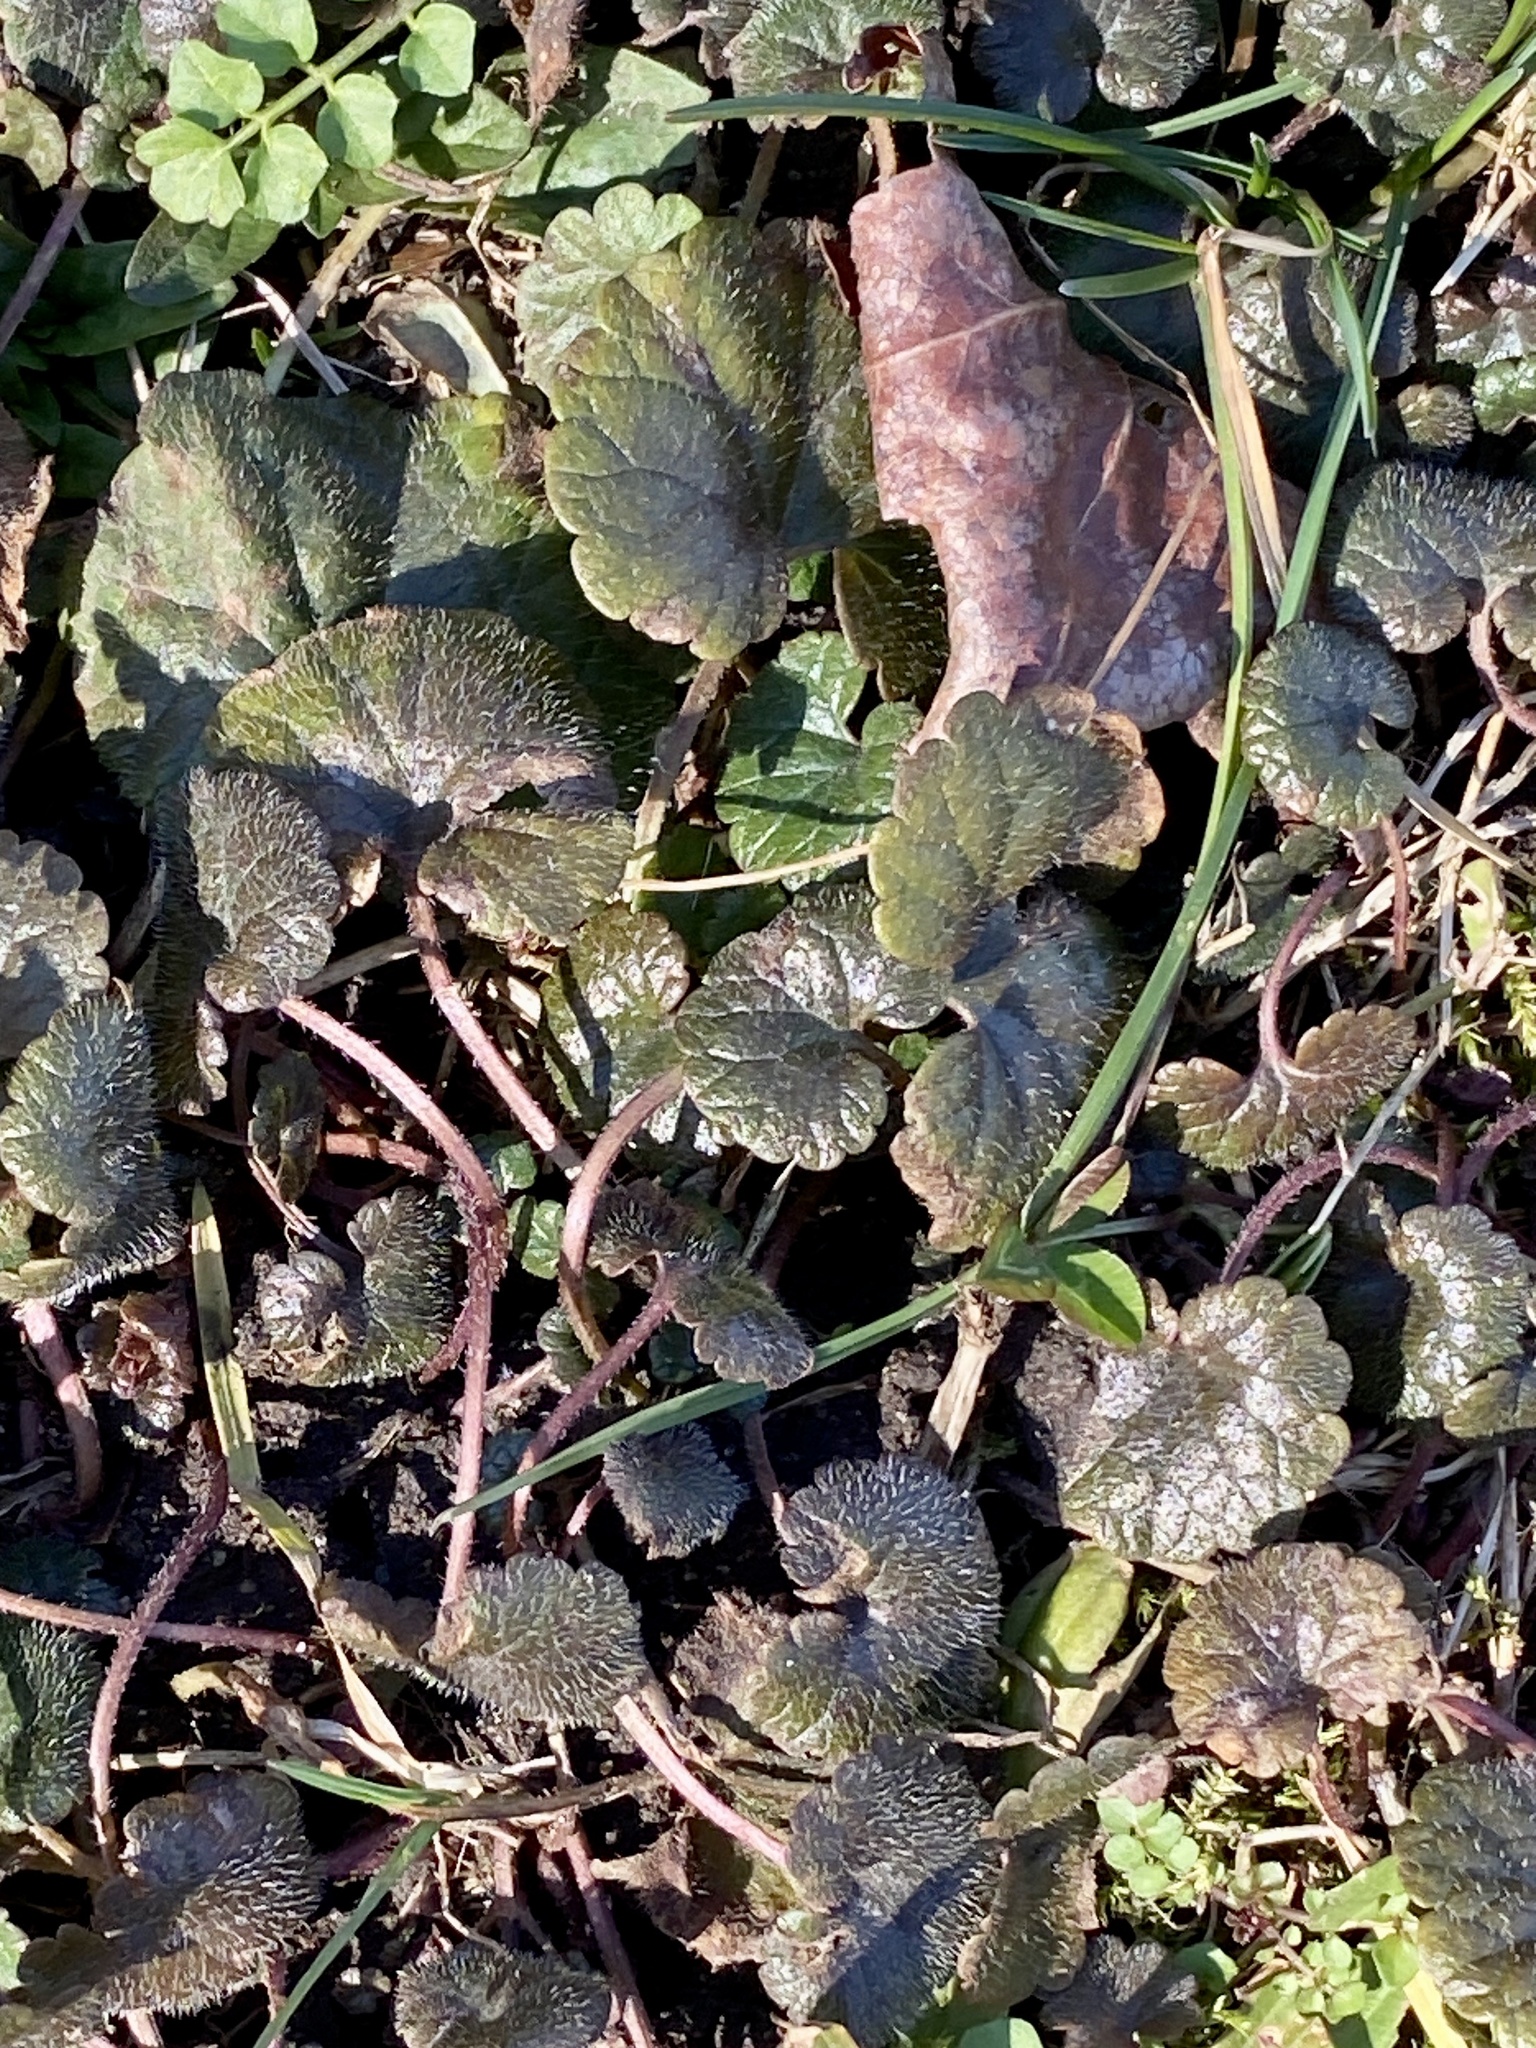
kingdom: Plantae
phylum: Tracheophyta
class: Magnoliopsida
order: Lamiales
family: Lamiaceae
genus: Glechoma
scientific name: Glechoma hederacea
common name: Ground ivy
